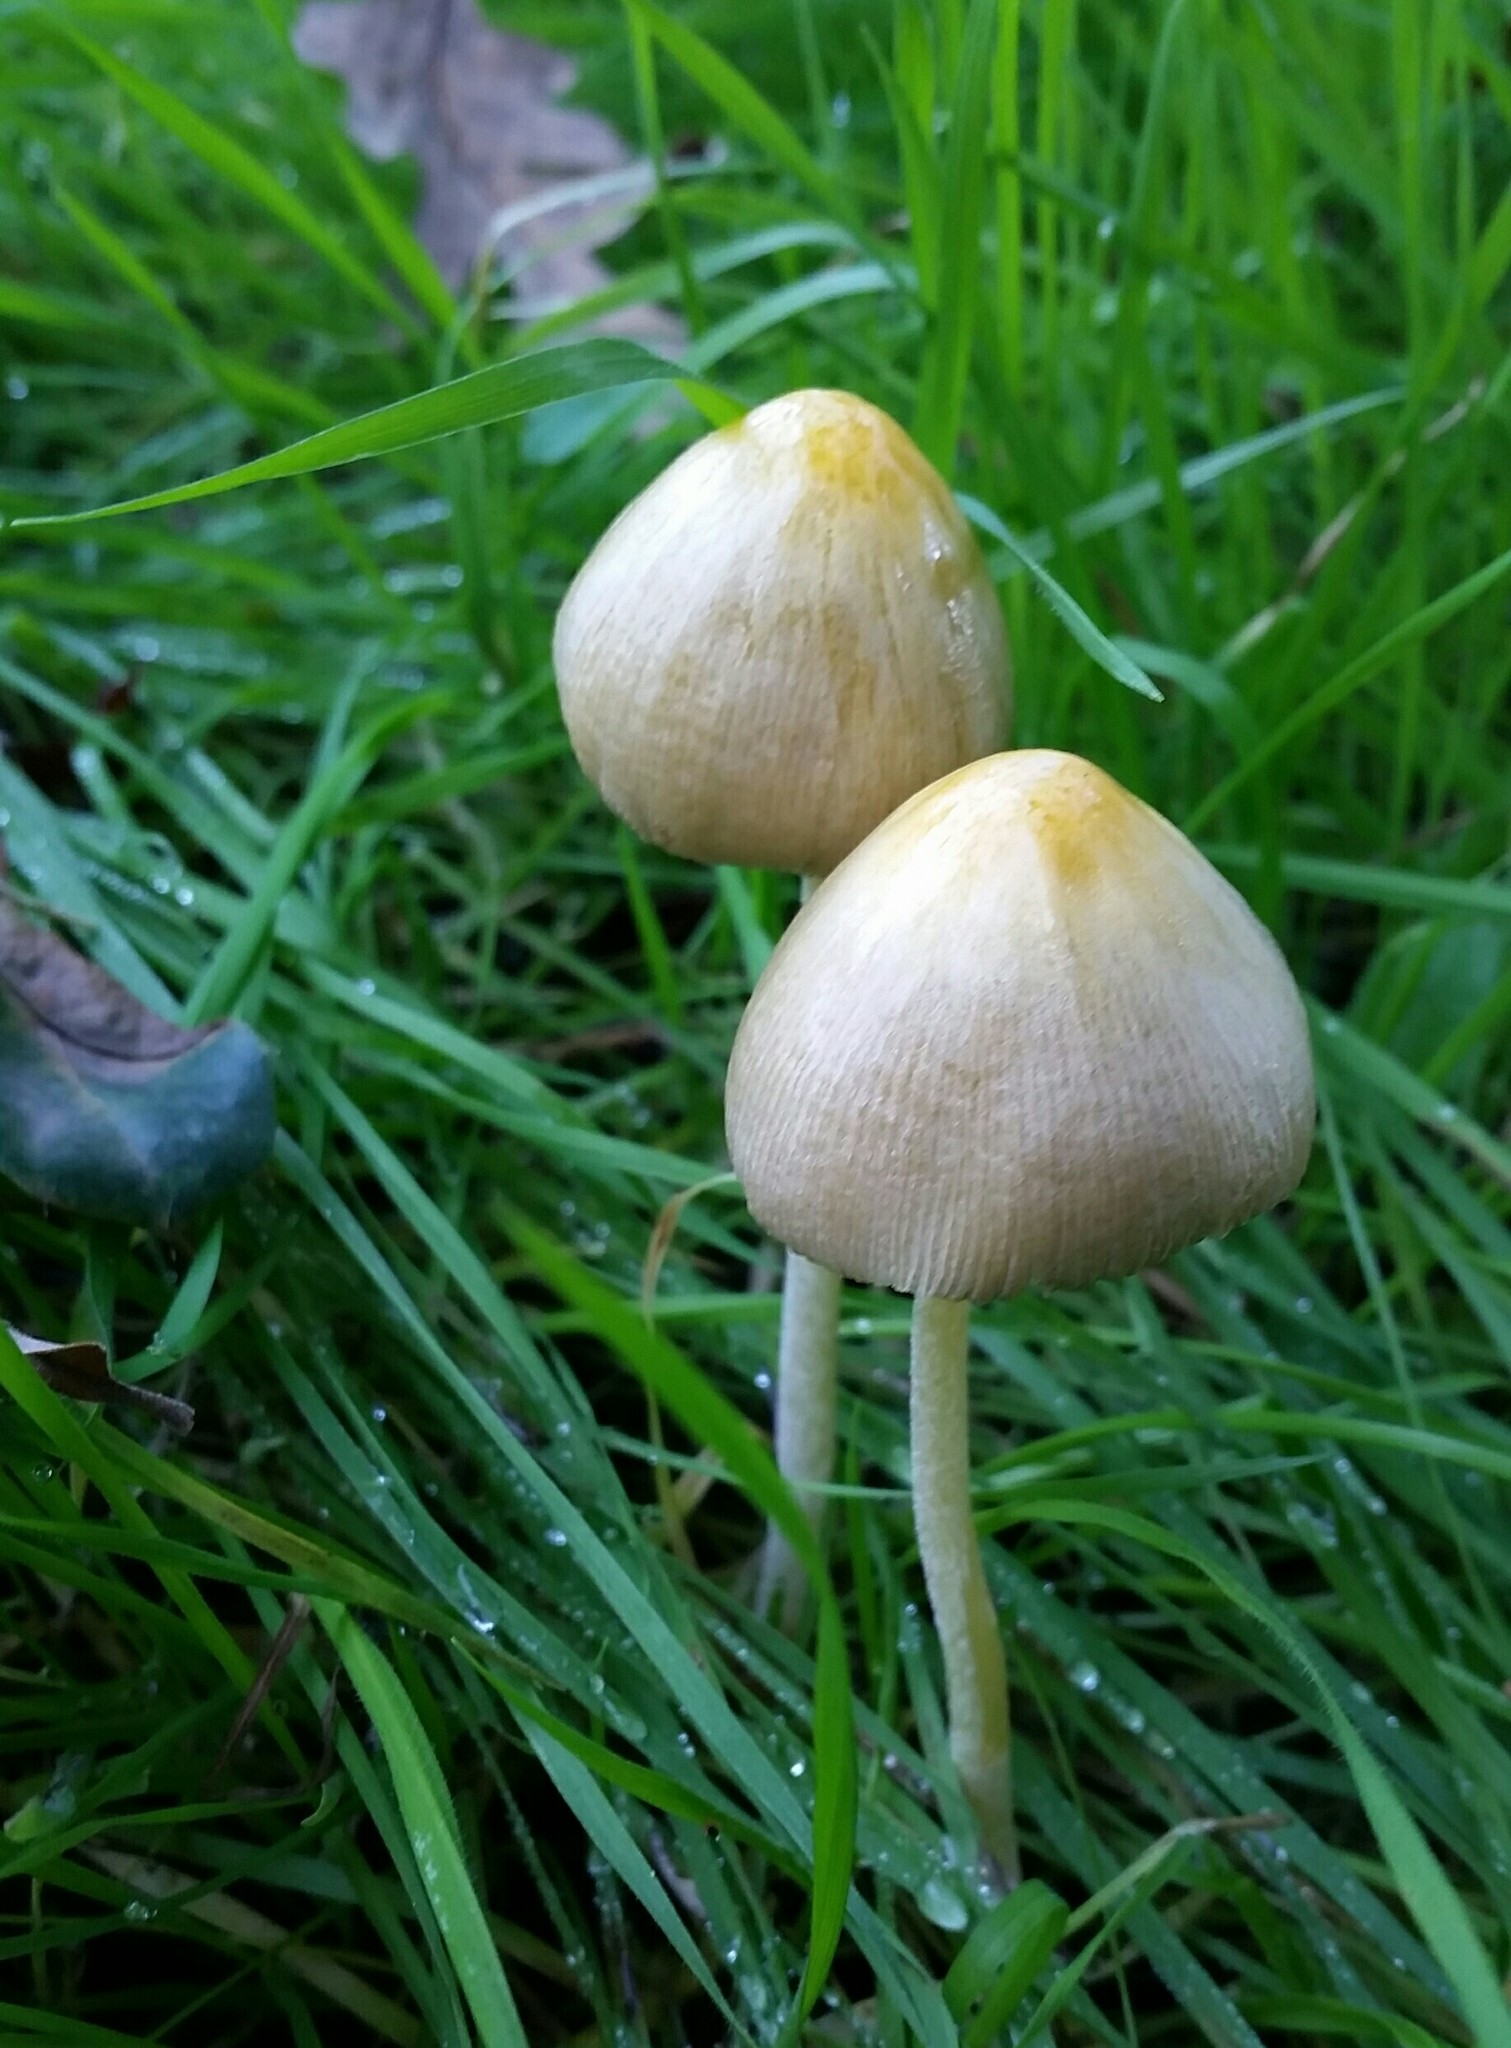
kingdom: Fungi
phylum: Basidiomycota
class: Agaricomycetes
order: Agaricales
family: Bolbitiaceae
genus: Bolbitius
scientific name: Bolbitius titubans
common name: Yellow fieldcap
